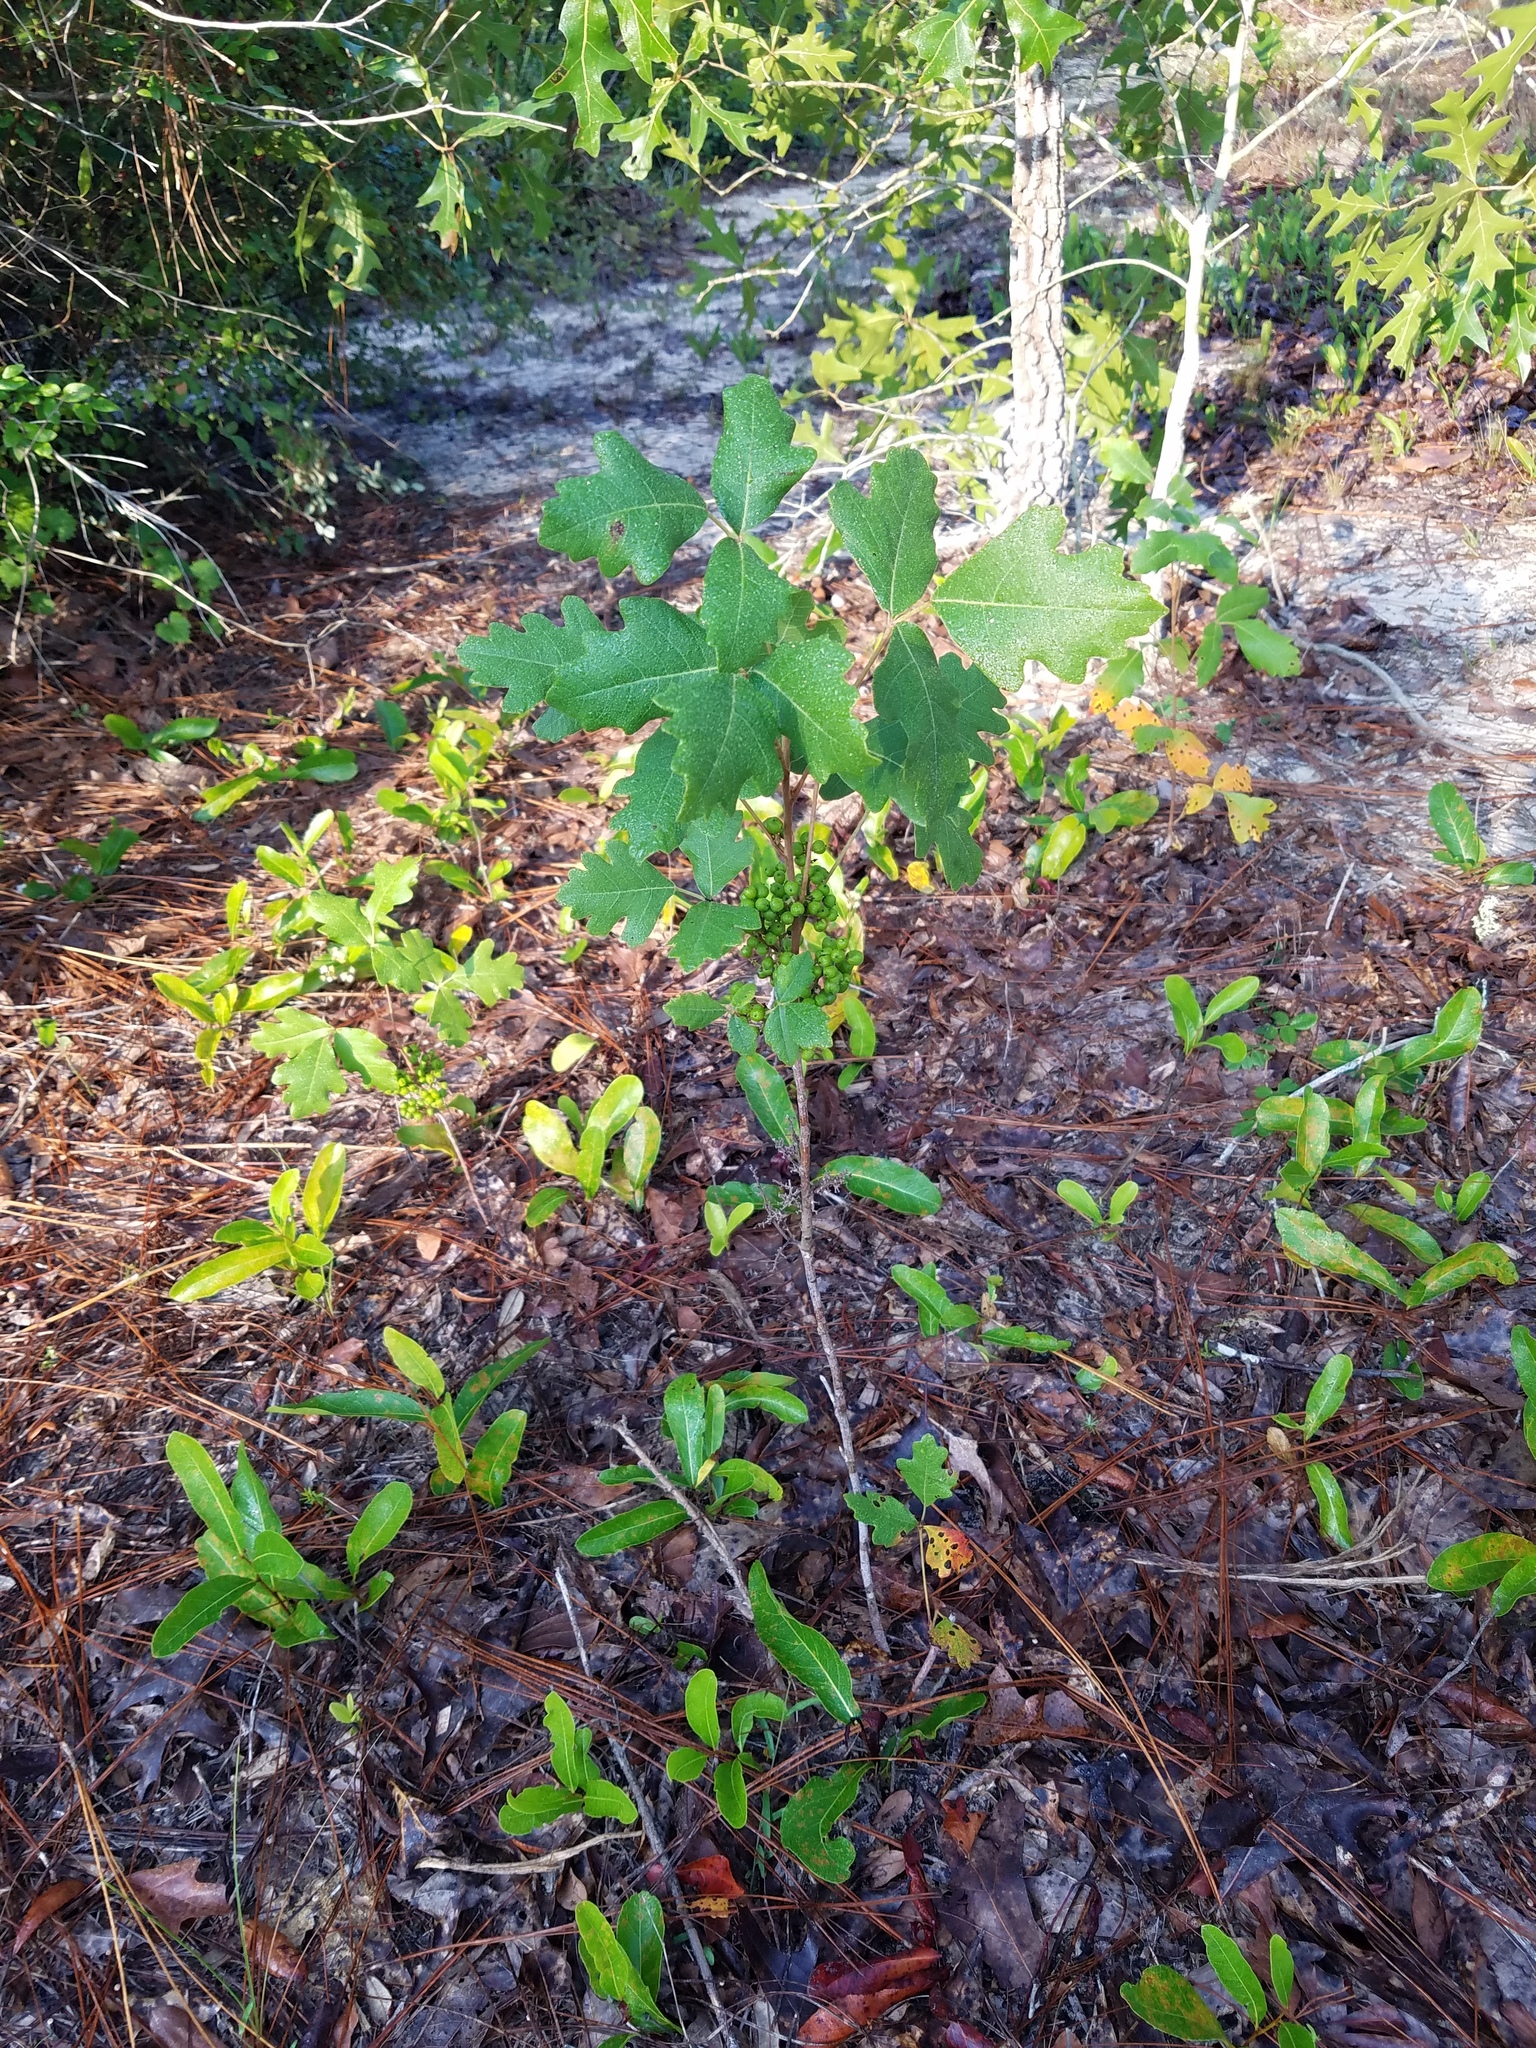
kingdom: Plantae
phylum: Tracheophyta
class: Magnoliopsida
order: Sapindales
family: Anacardiaceae
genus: Toxicodendron
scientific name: Toxicodendron pubescens
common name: Eastern poison-oak
